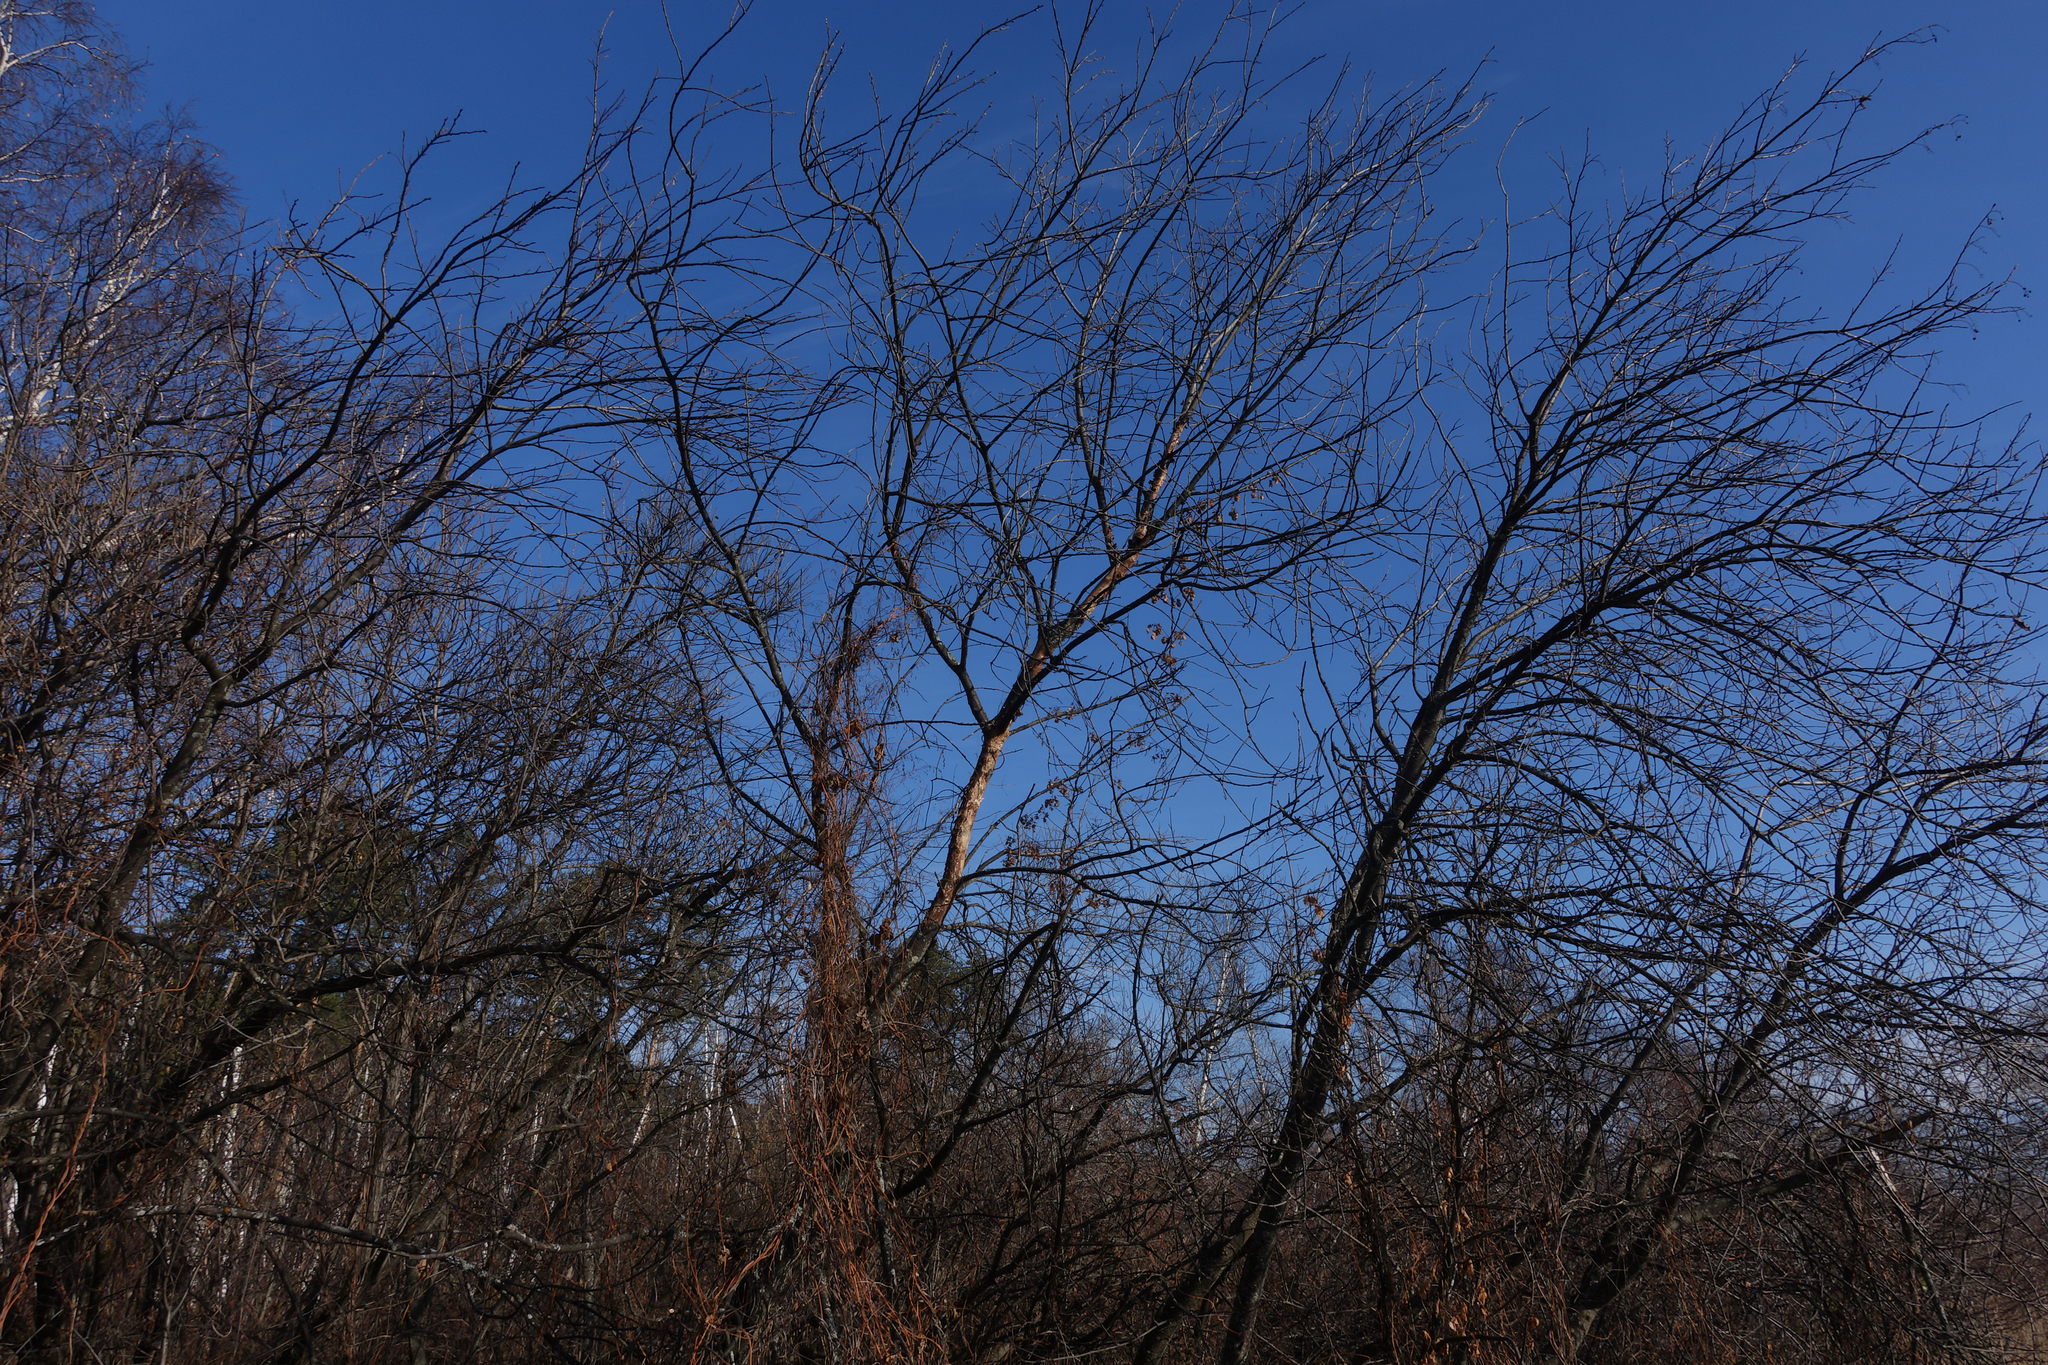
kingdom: Plantae
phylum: Tracheophyta
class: Magnoliopsida
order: Rosales
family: Rosaceae
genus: Prunus
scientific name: Prunus padus
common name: Bird cherry
